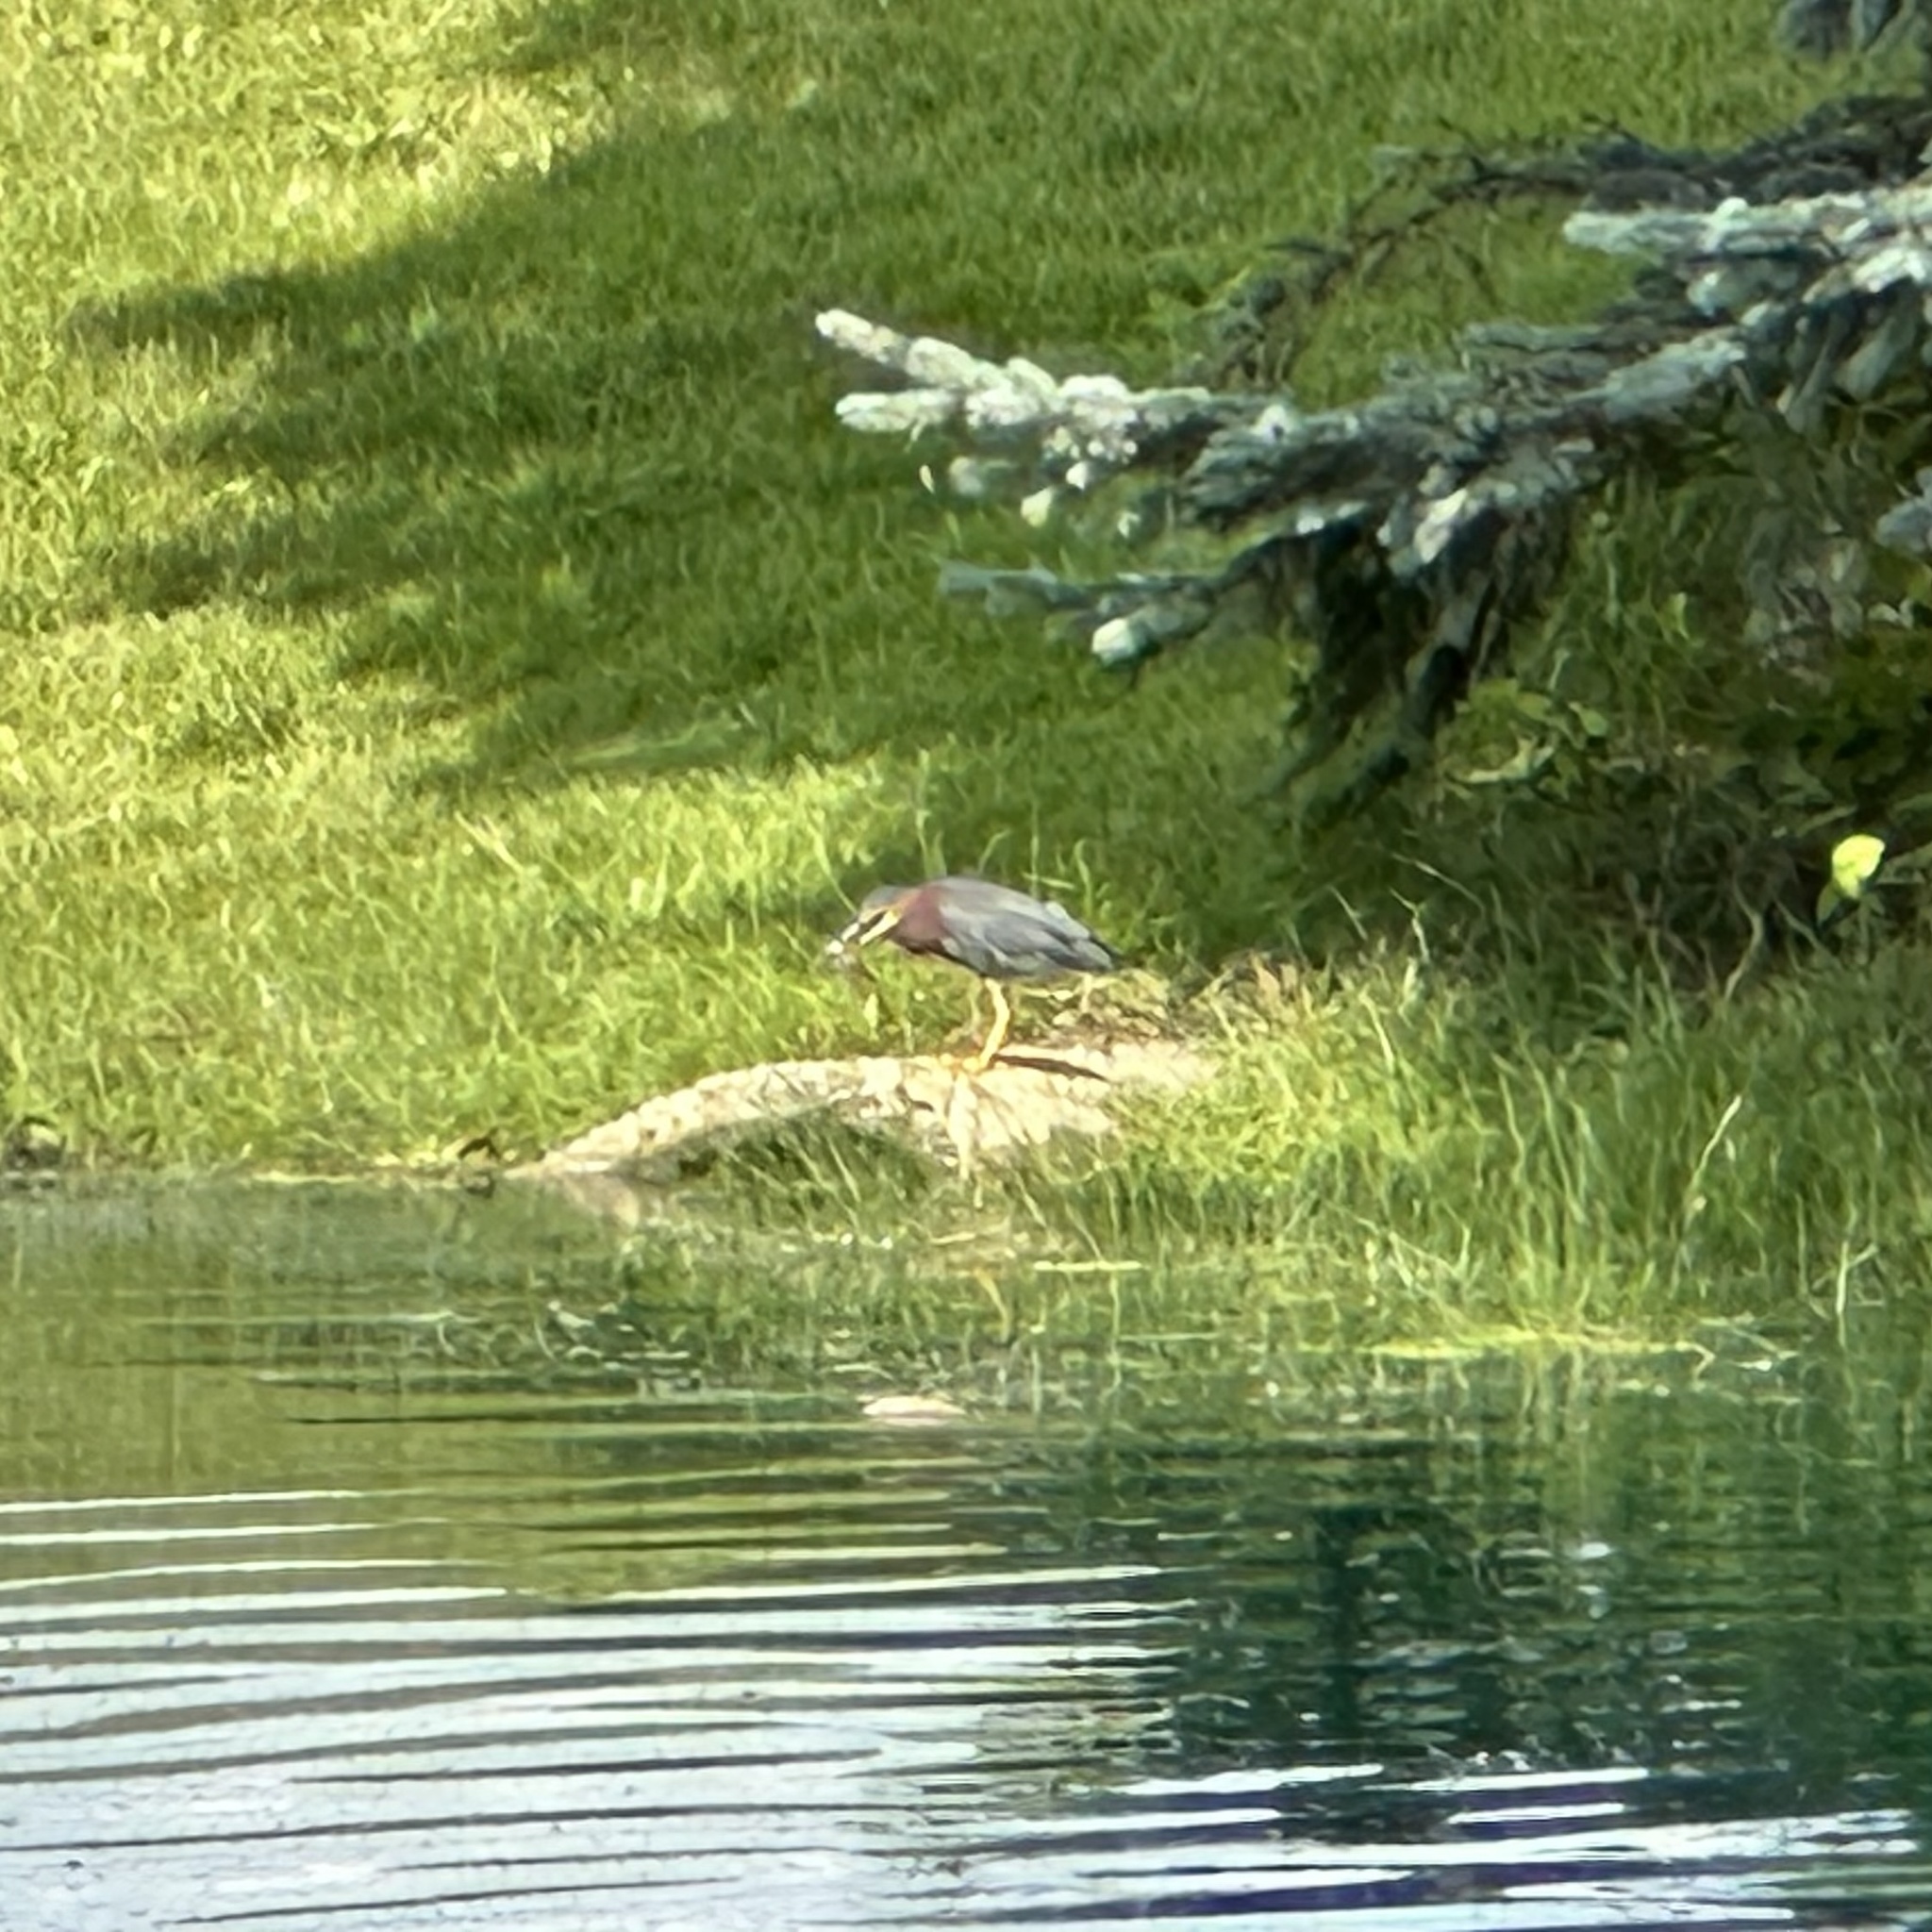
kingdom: Animalia
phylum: Chordata
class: Aves
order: Pelecaniformes
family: Ardeidae
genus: Butorides
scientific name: Butorides virescens
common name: Green heron
